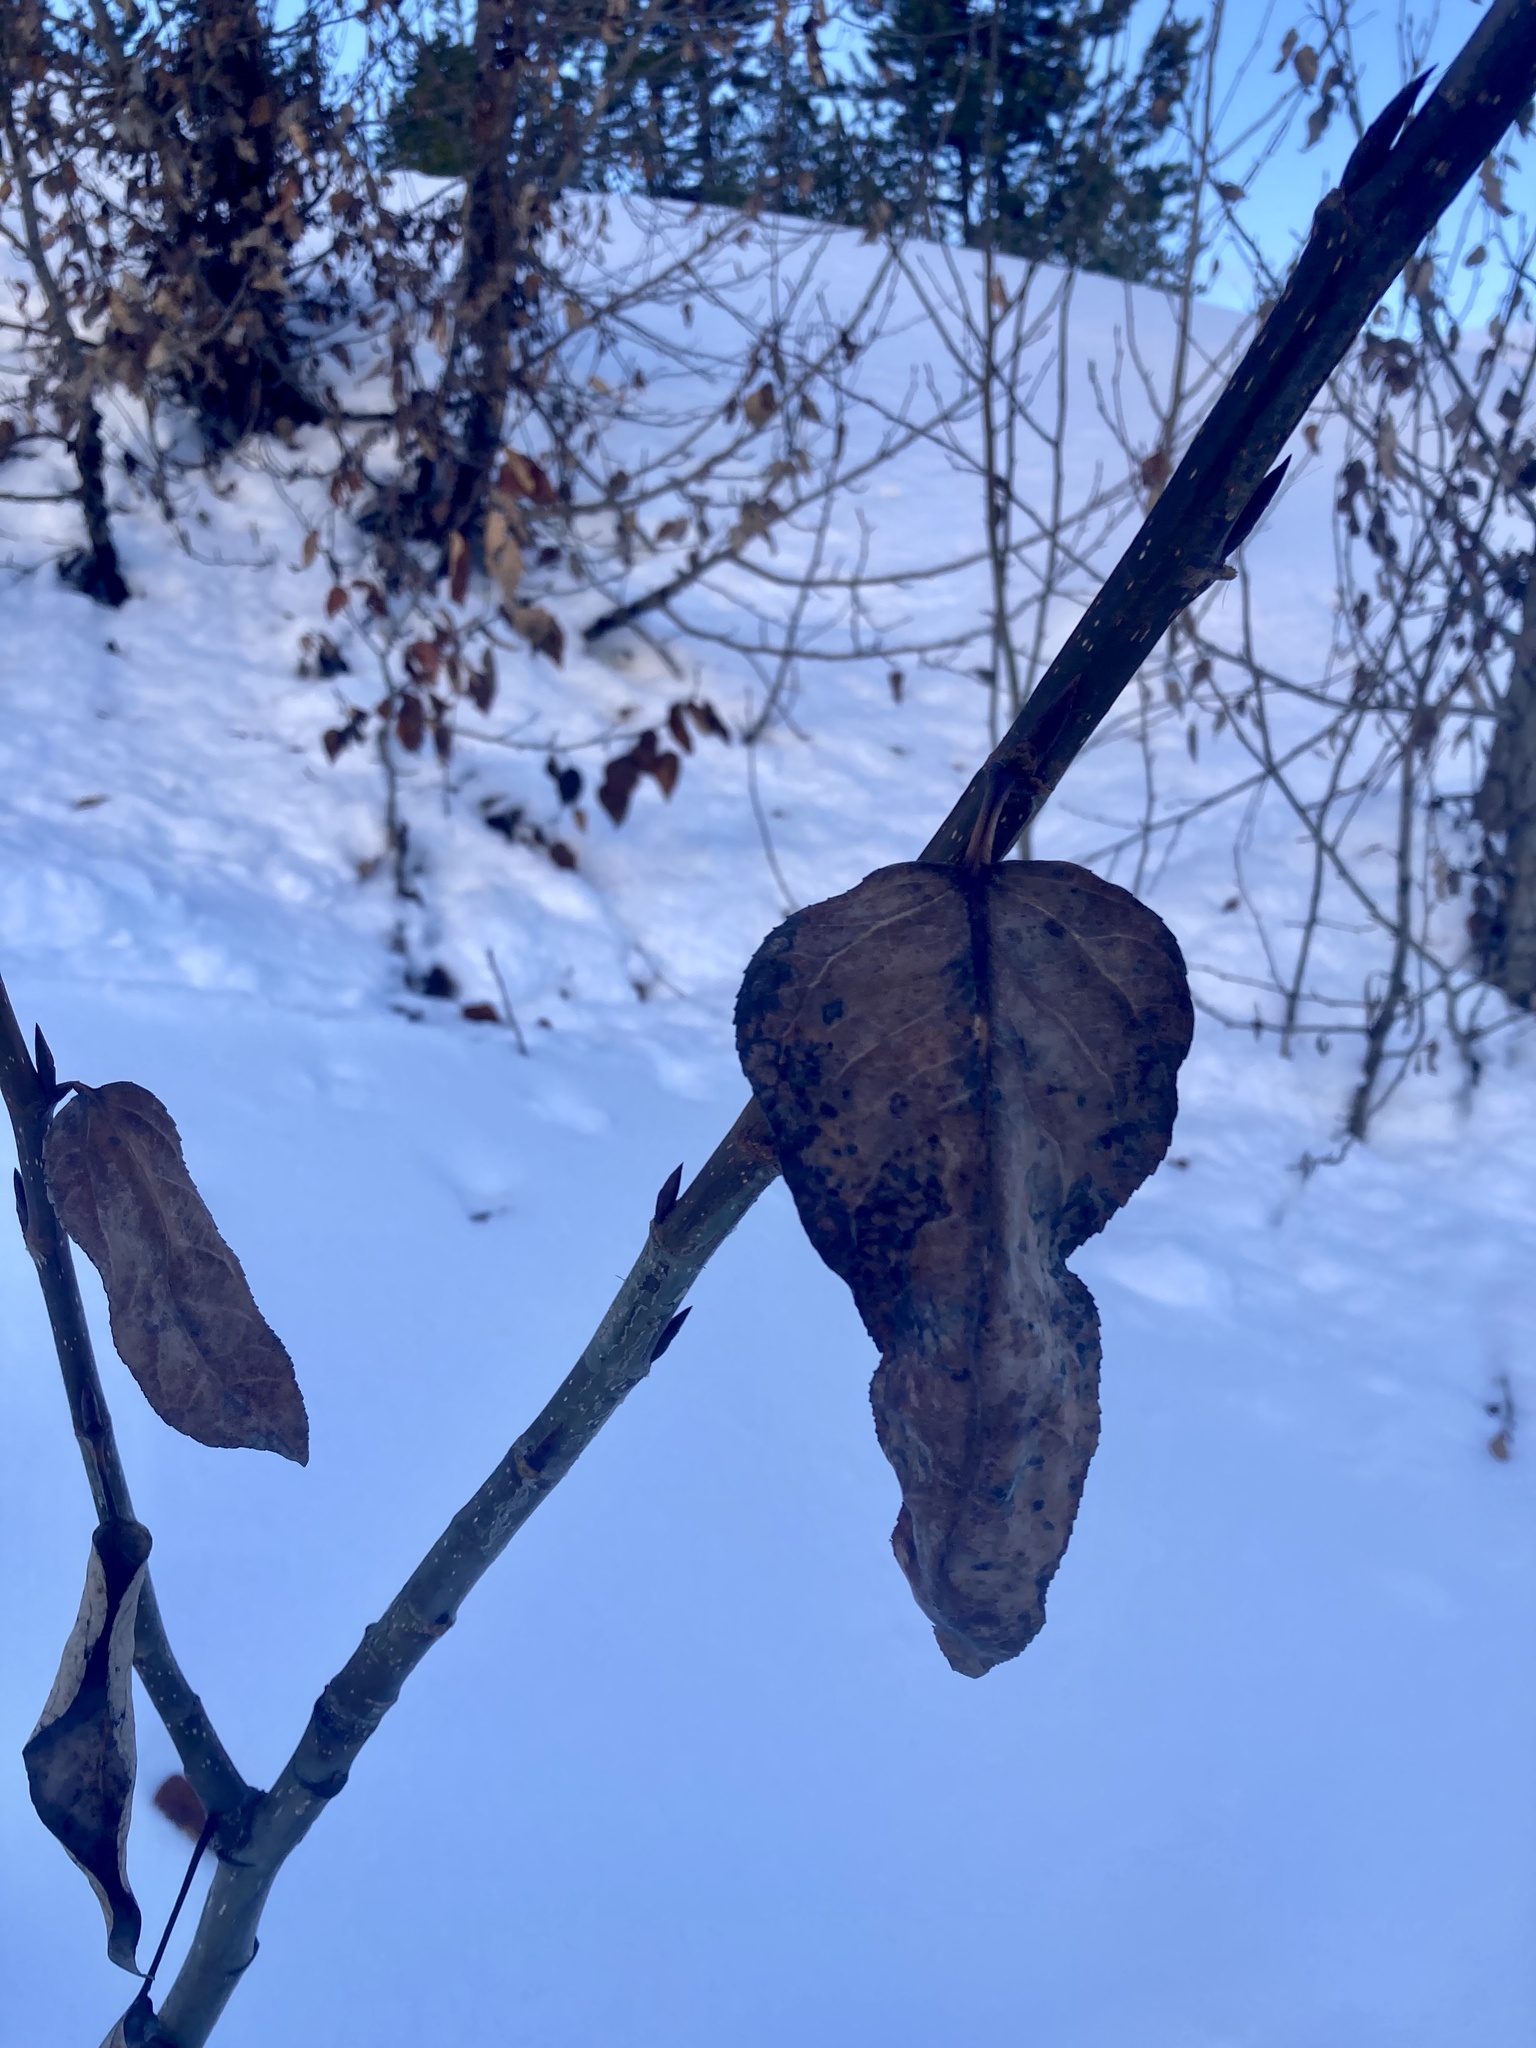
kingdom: Plantae
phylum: Tracheophyta
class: Magnoliopsida
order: Malpighiales
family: Salicaceae
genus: Populus
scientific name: Populus trichocarpa
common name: Black cottonwood
